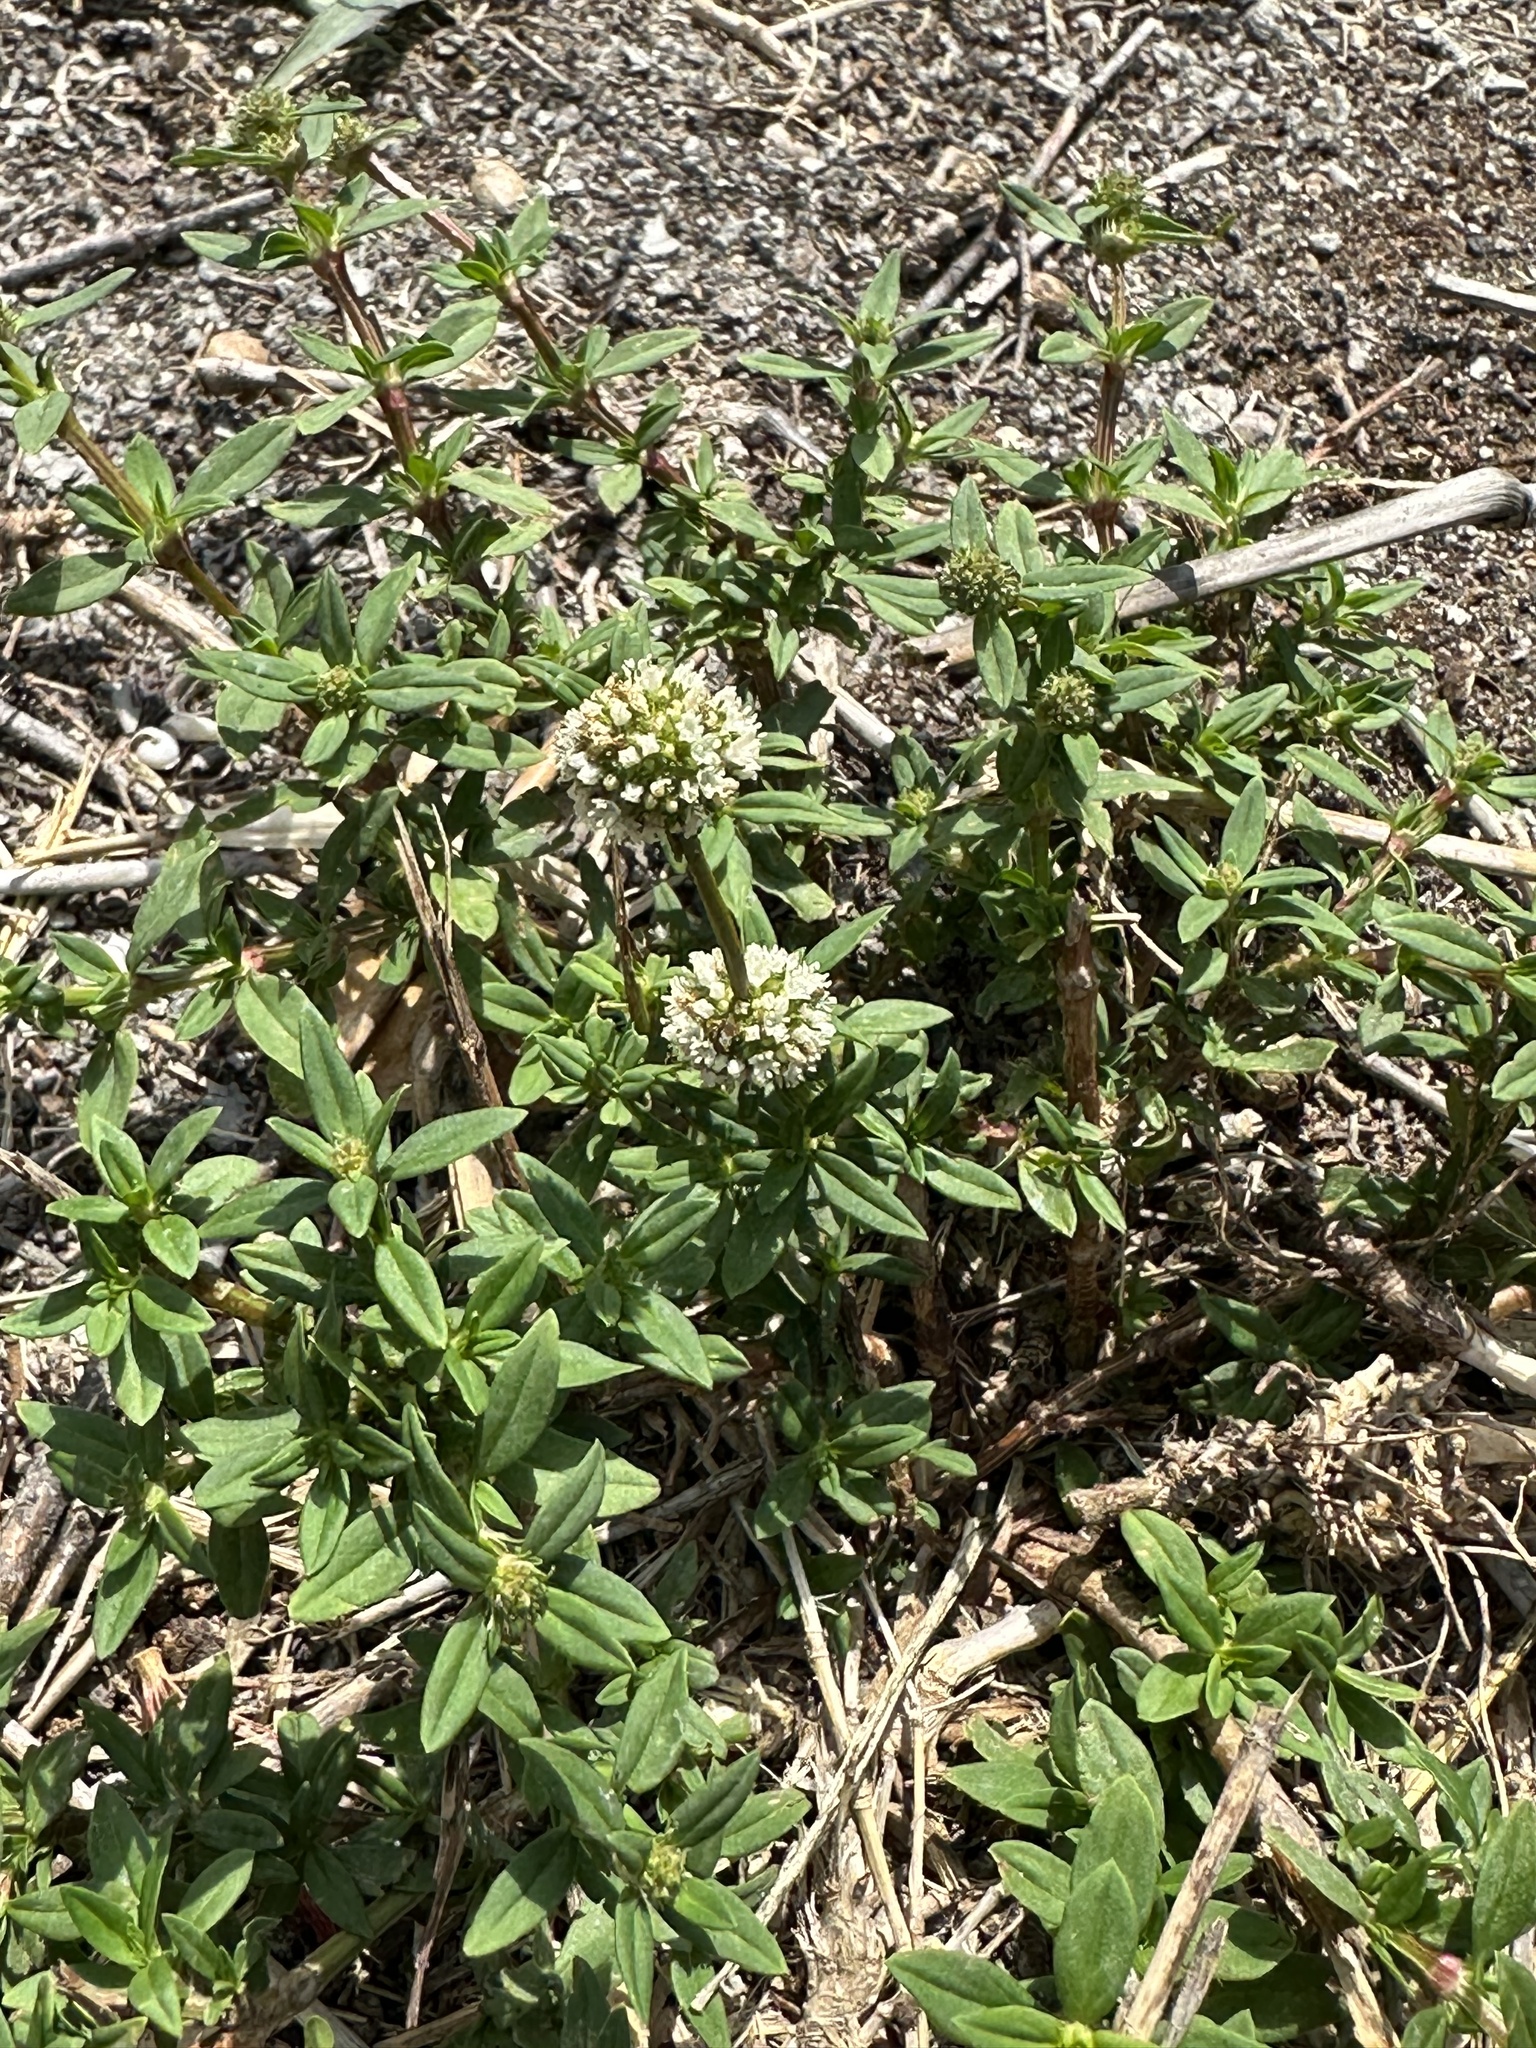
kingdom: Plantae
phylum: Tracheophyta
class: Magnoliopsida
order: Gentianales
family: Rubiaceae
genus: Spermacoce
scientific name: Spermacoce verticillata
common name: Shrubby false buttonweed
